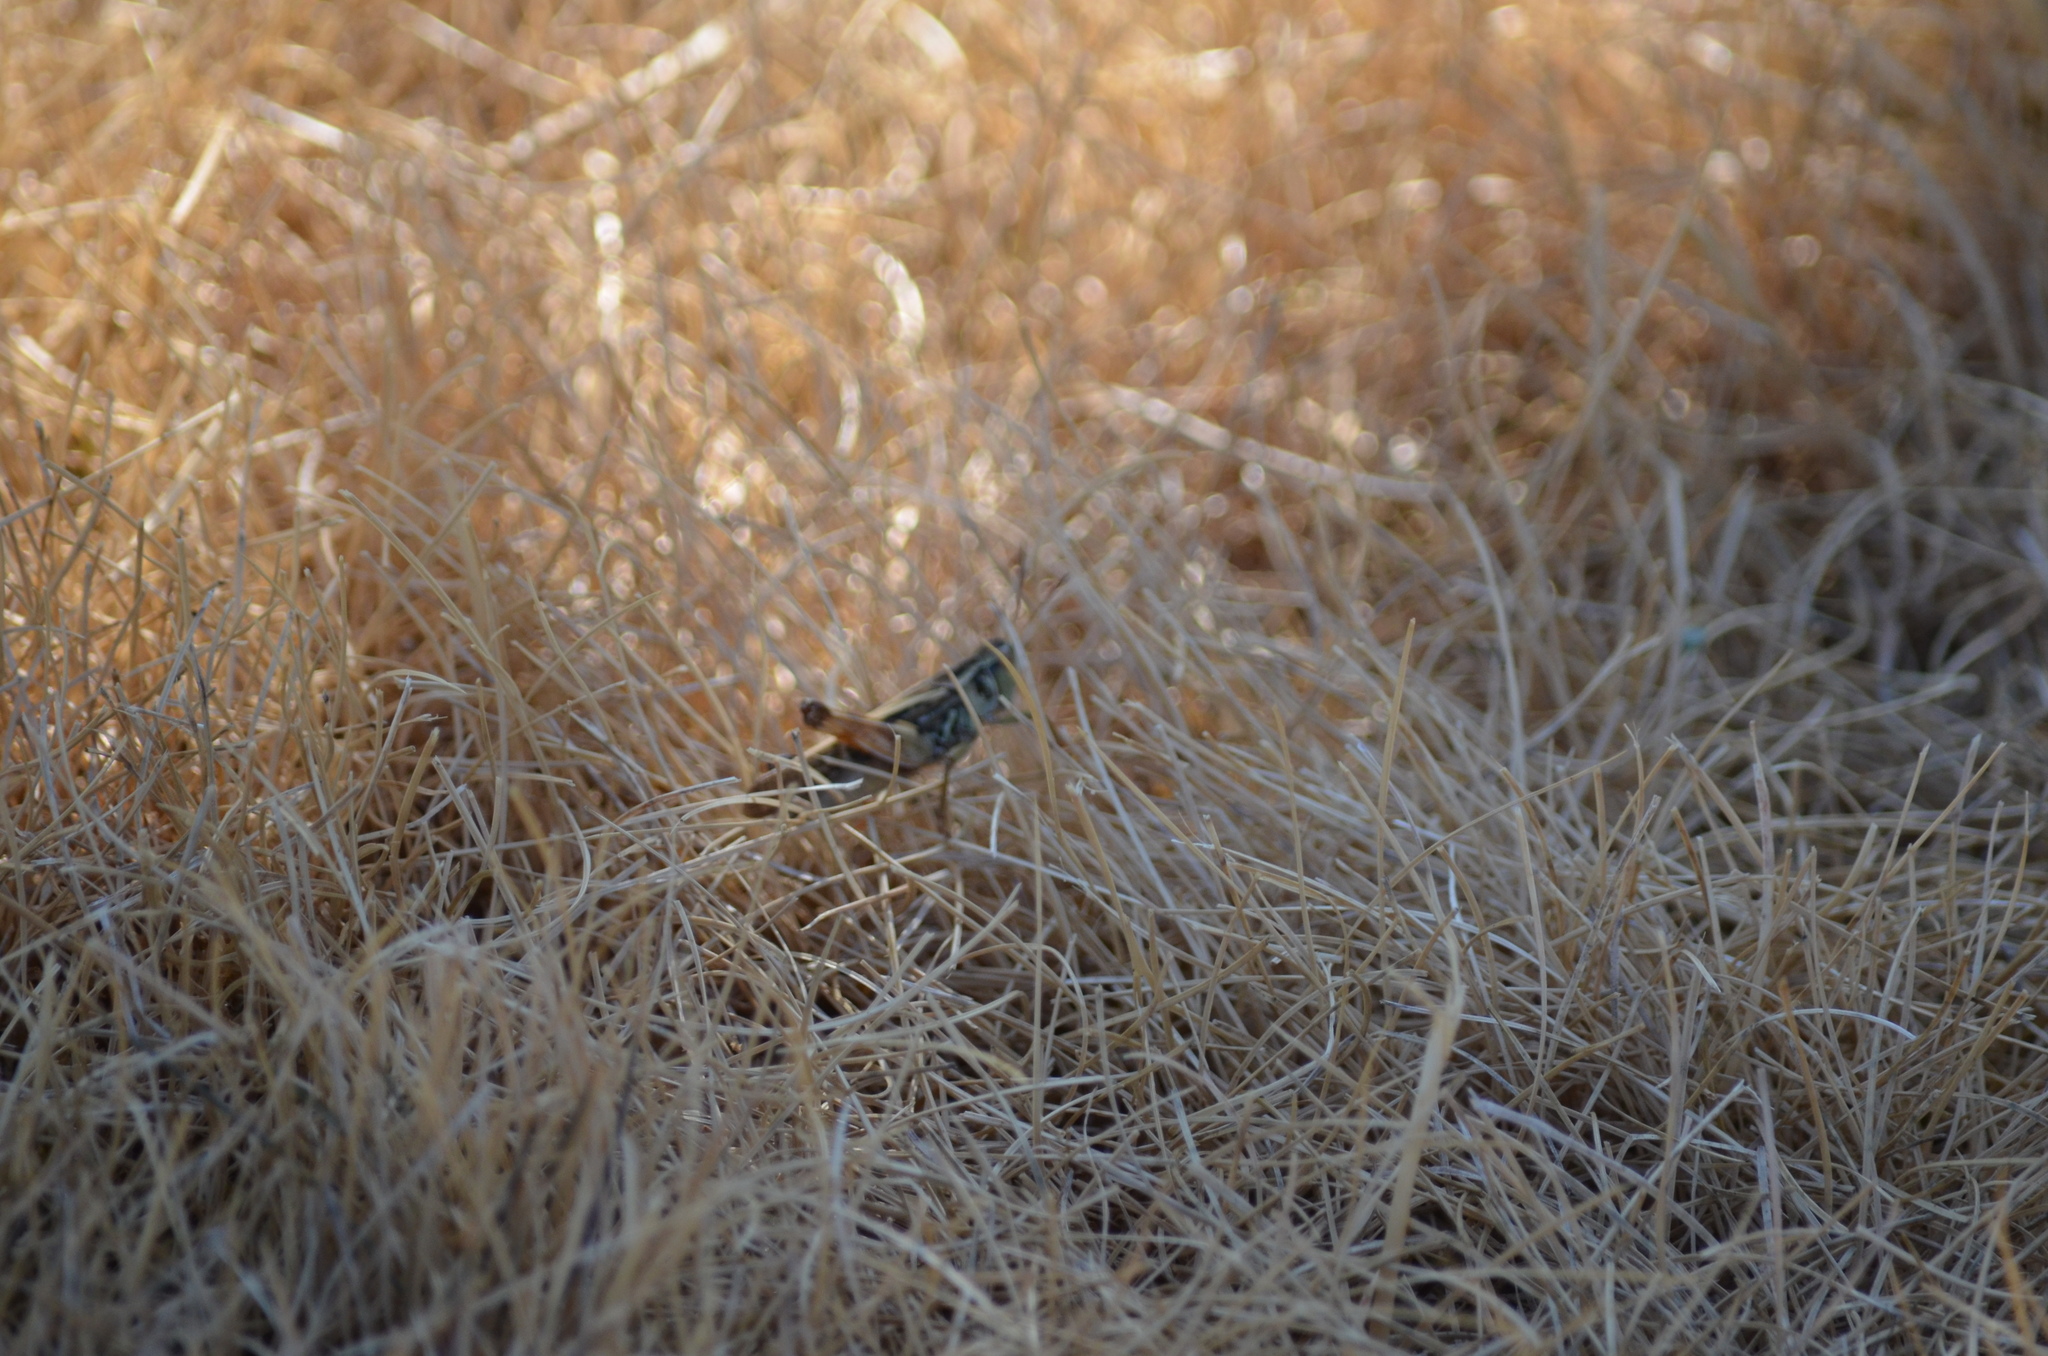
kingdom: Animalia
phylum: Arthropoda
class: Insecta
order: Orthoptera
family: Acrididae
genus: Camnula
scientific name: Camnula pellucida
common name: Clear-winged grasshopper
